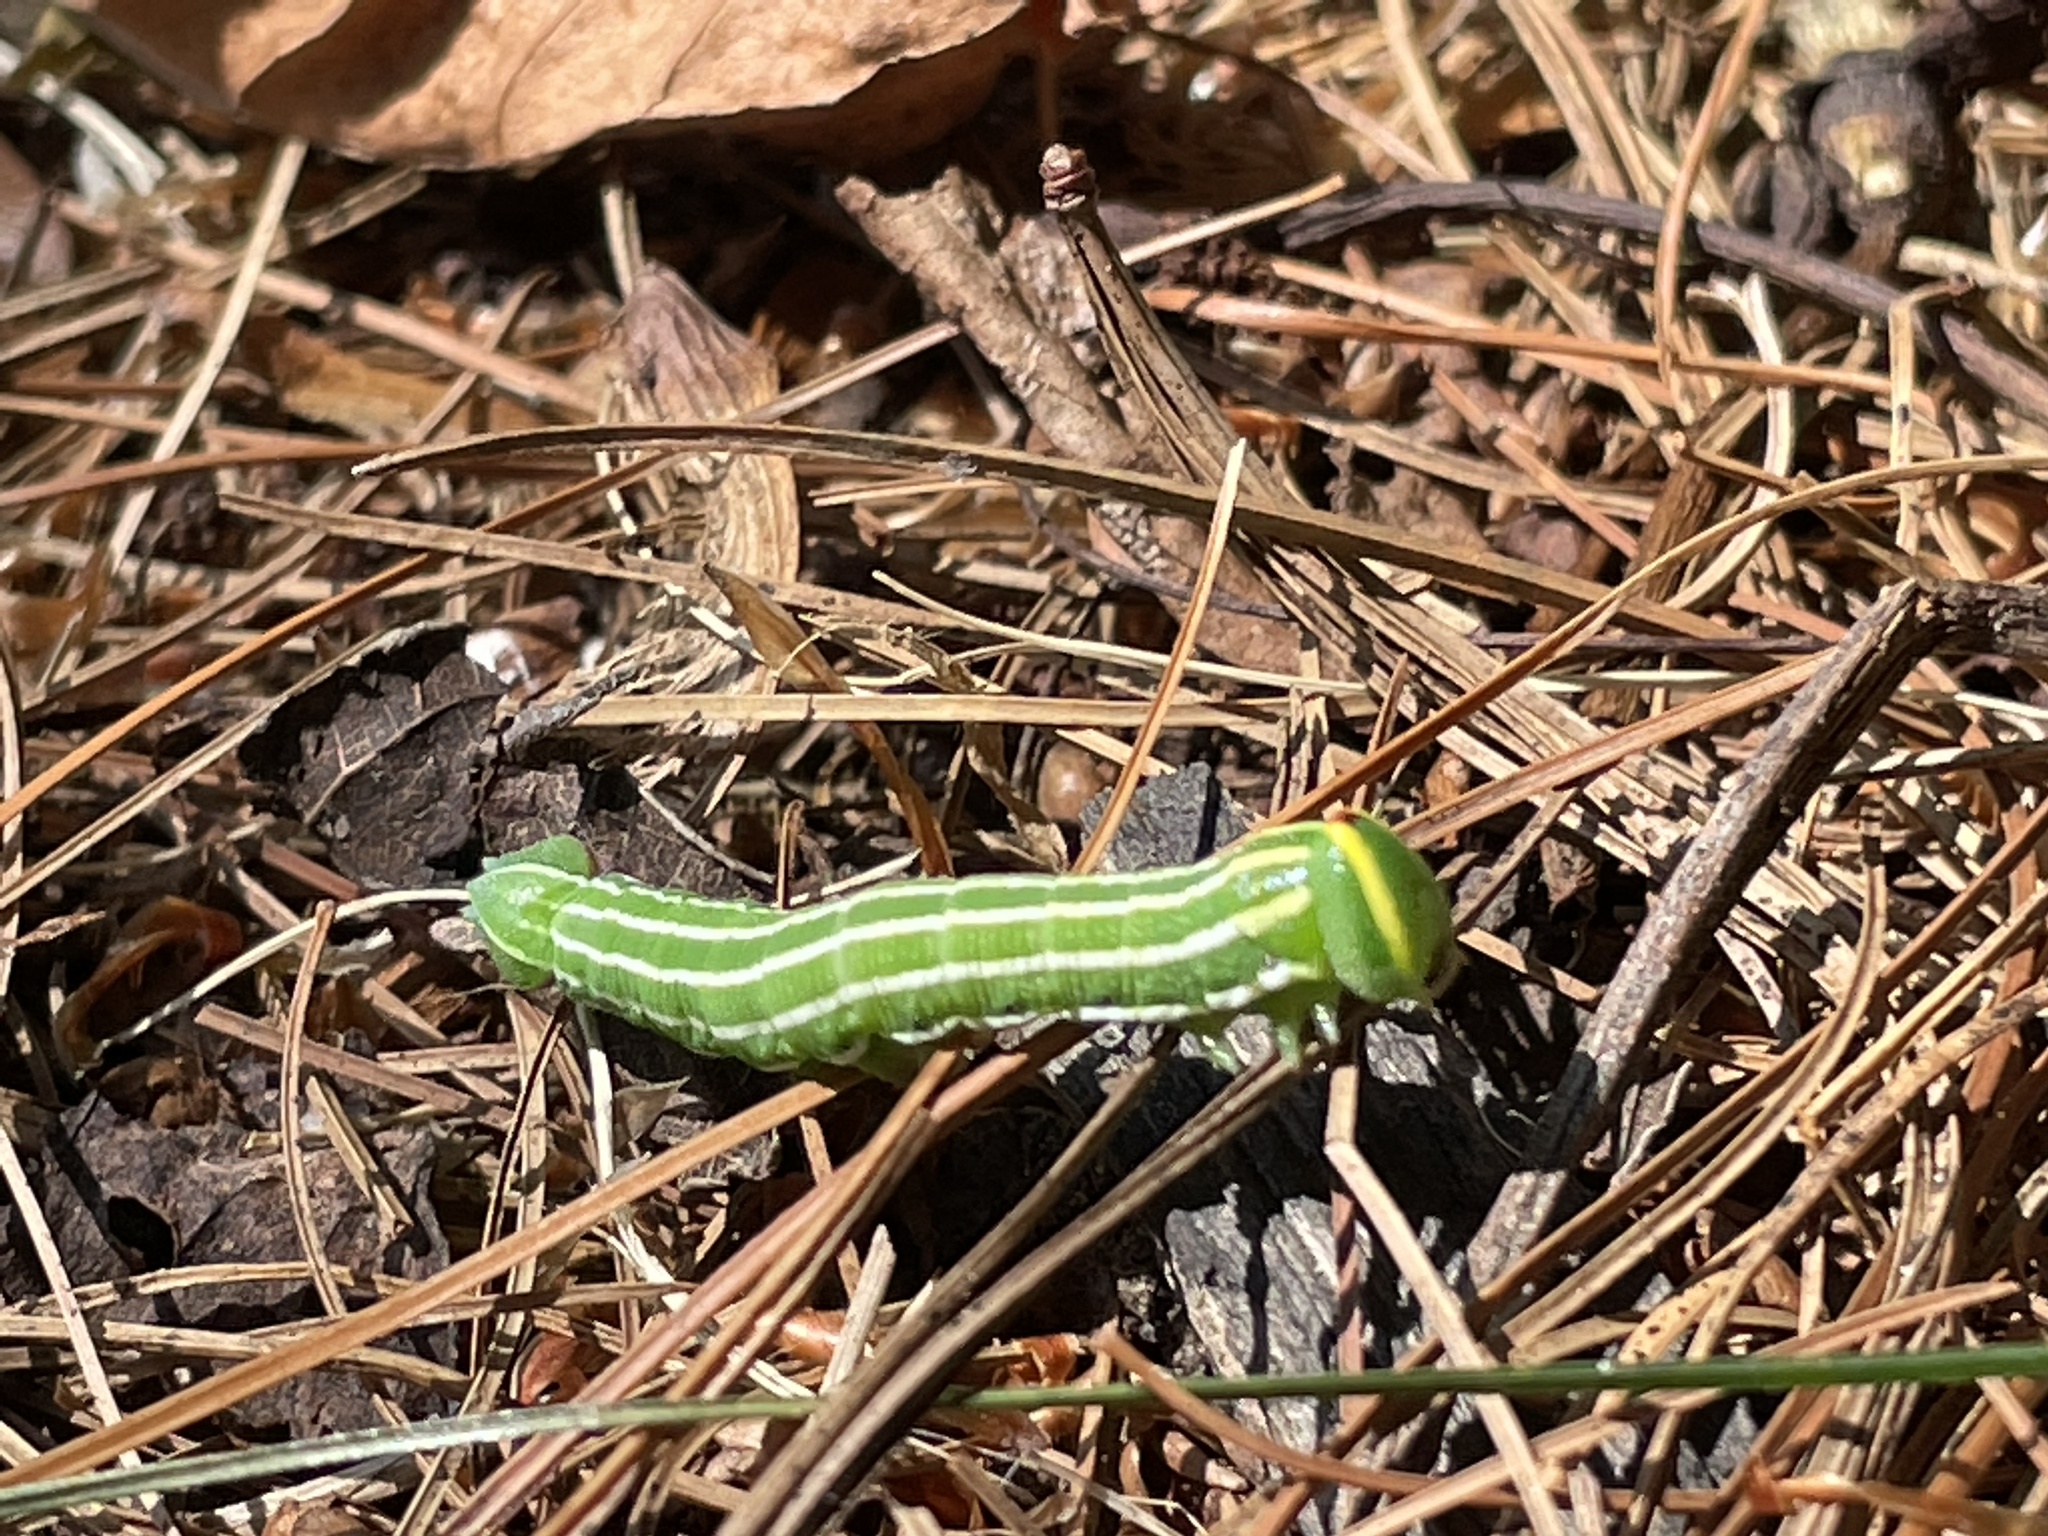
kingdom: Animalia
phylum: Arthropoda
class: Insecta
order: Lepidoptera
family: Sphingidae
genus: Lapara
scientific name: Lapara bombycoides
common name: Northern pine sphinx
